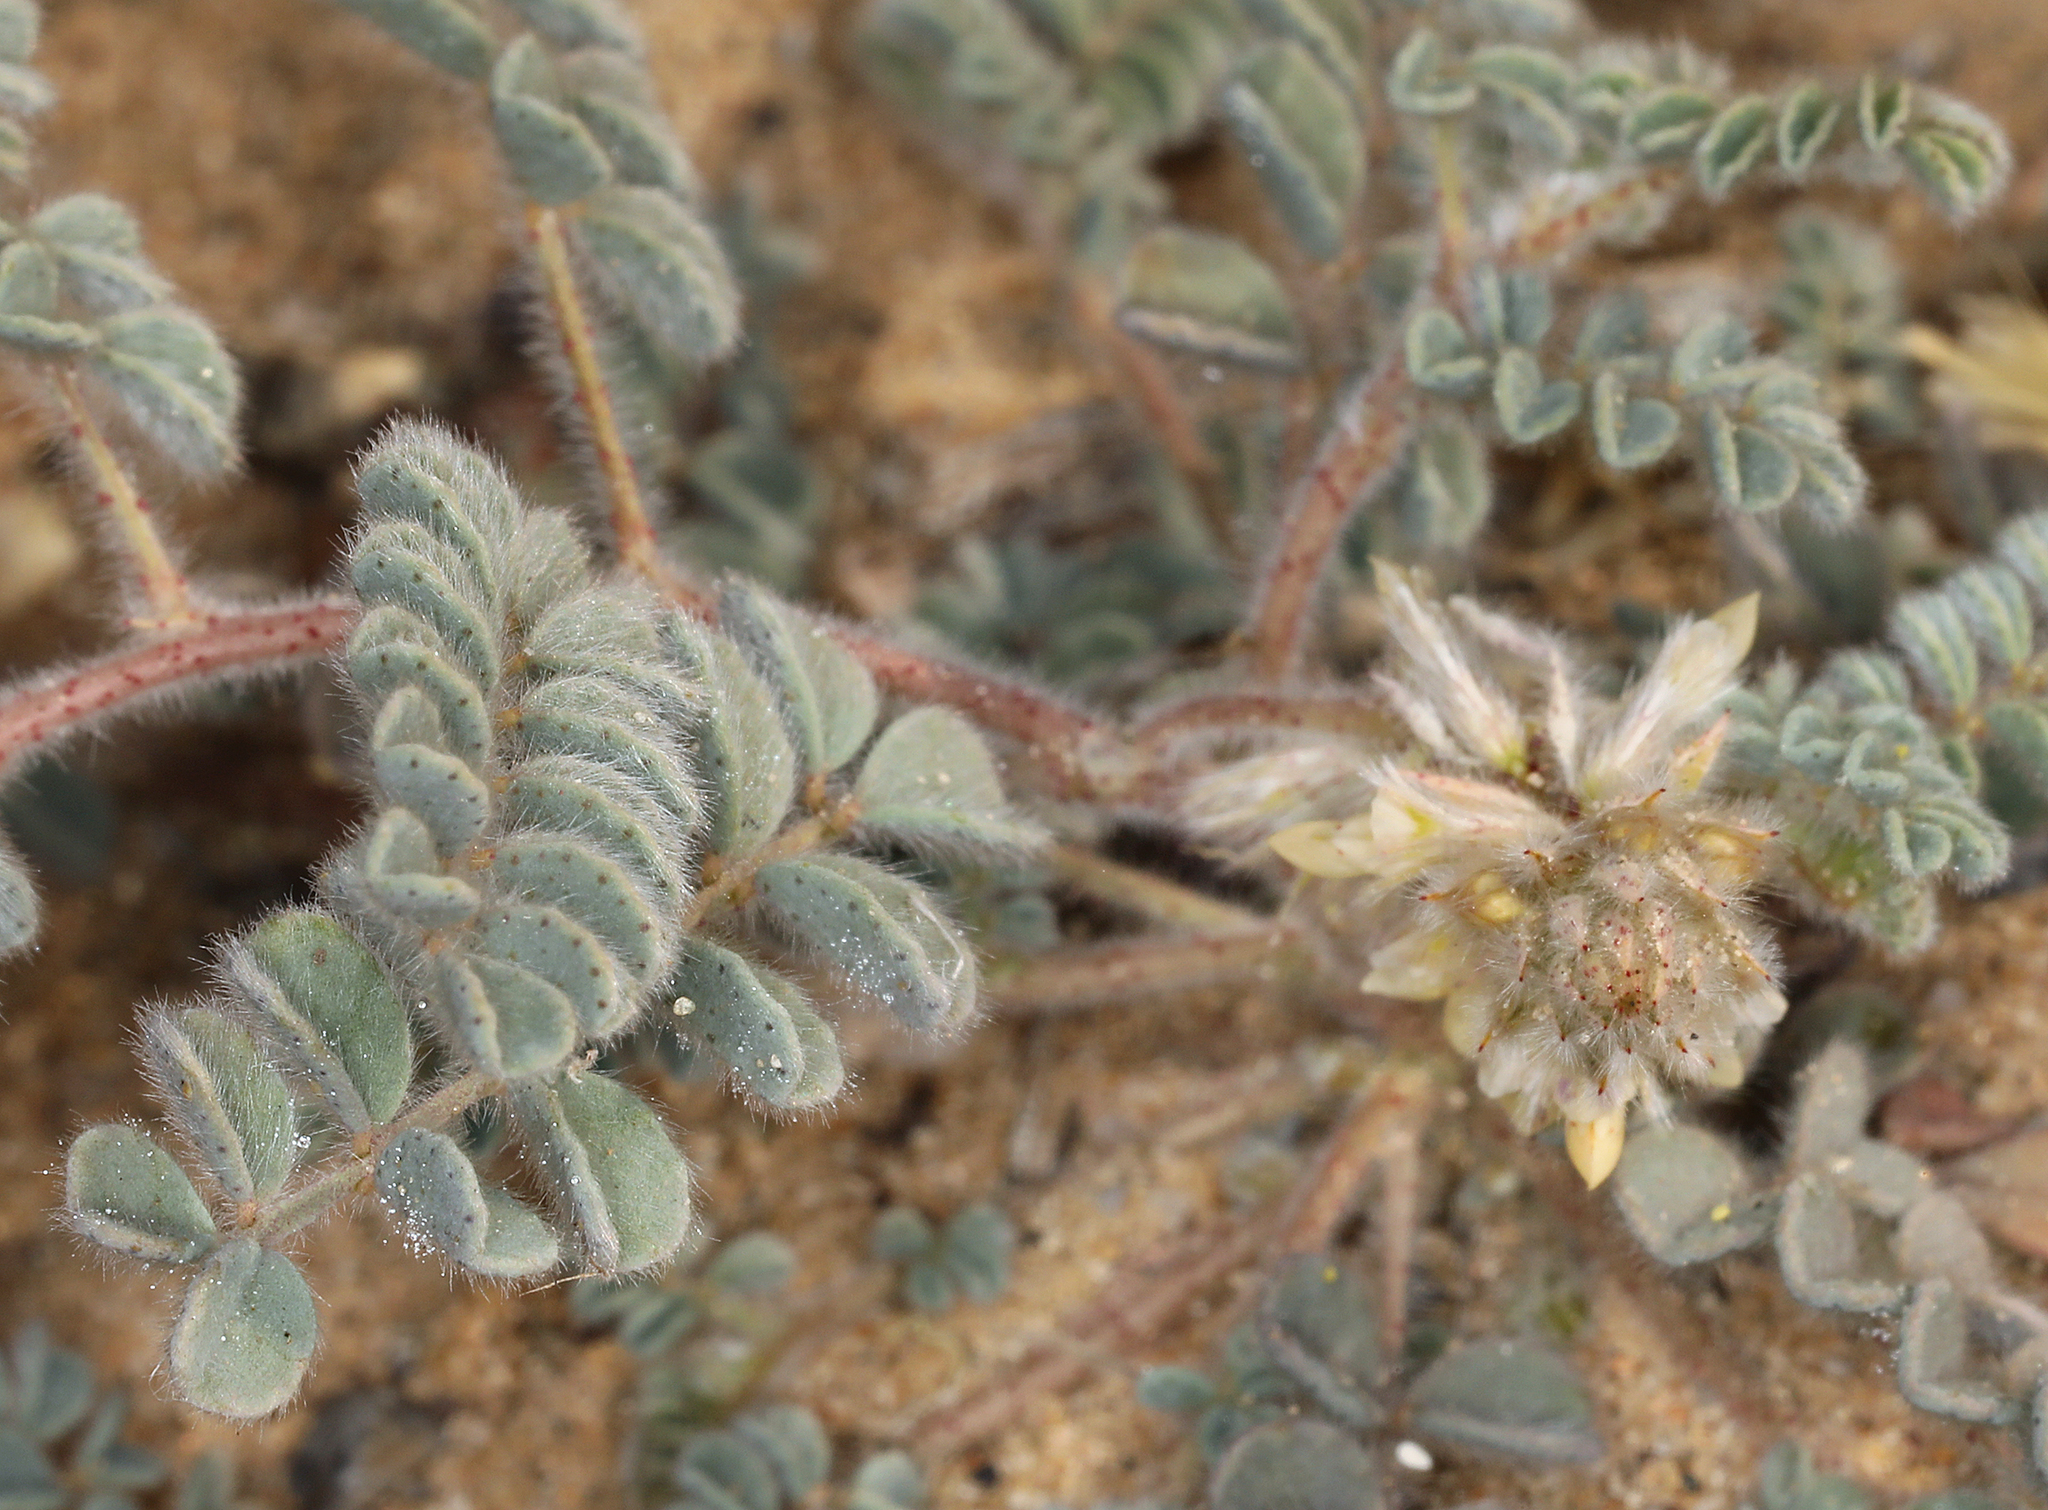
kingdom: Plantae
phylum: Tracheophyta
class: Magnoliopsida
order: Fabales
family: Fabaceae
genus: Dalea
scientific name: Dalea mollis
